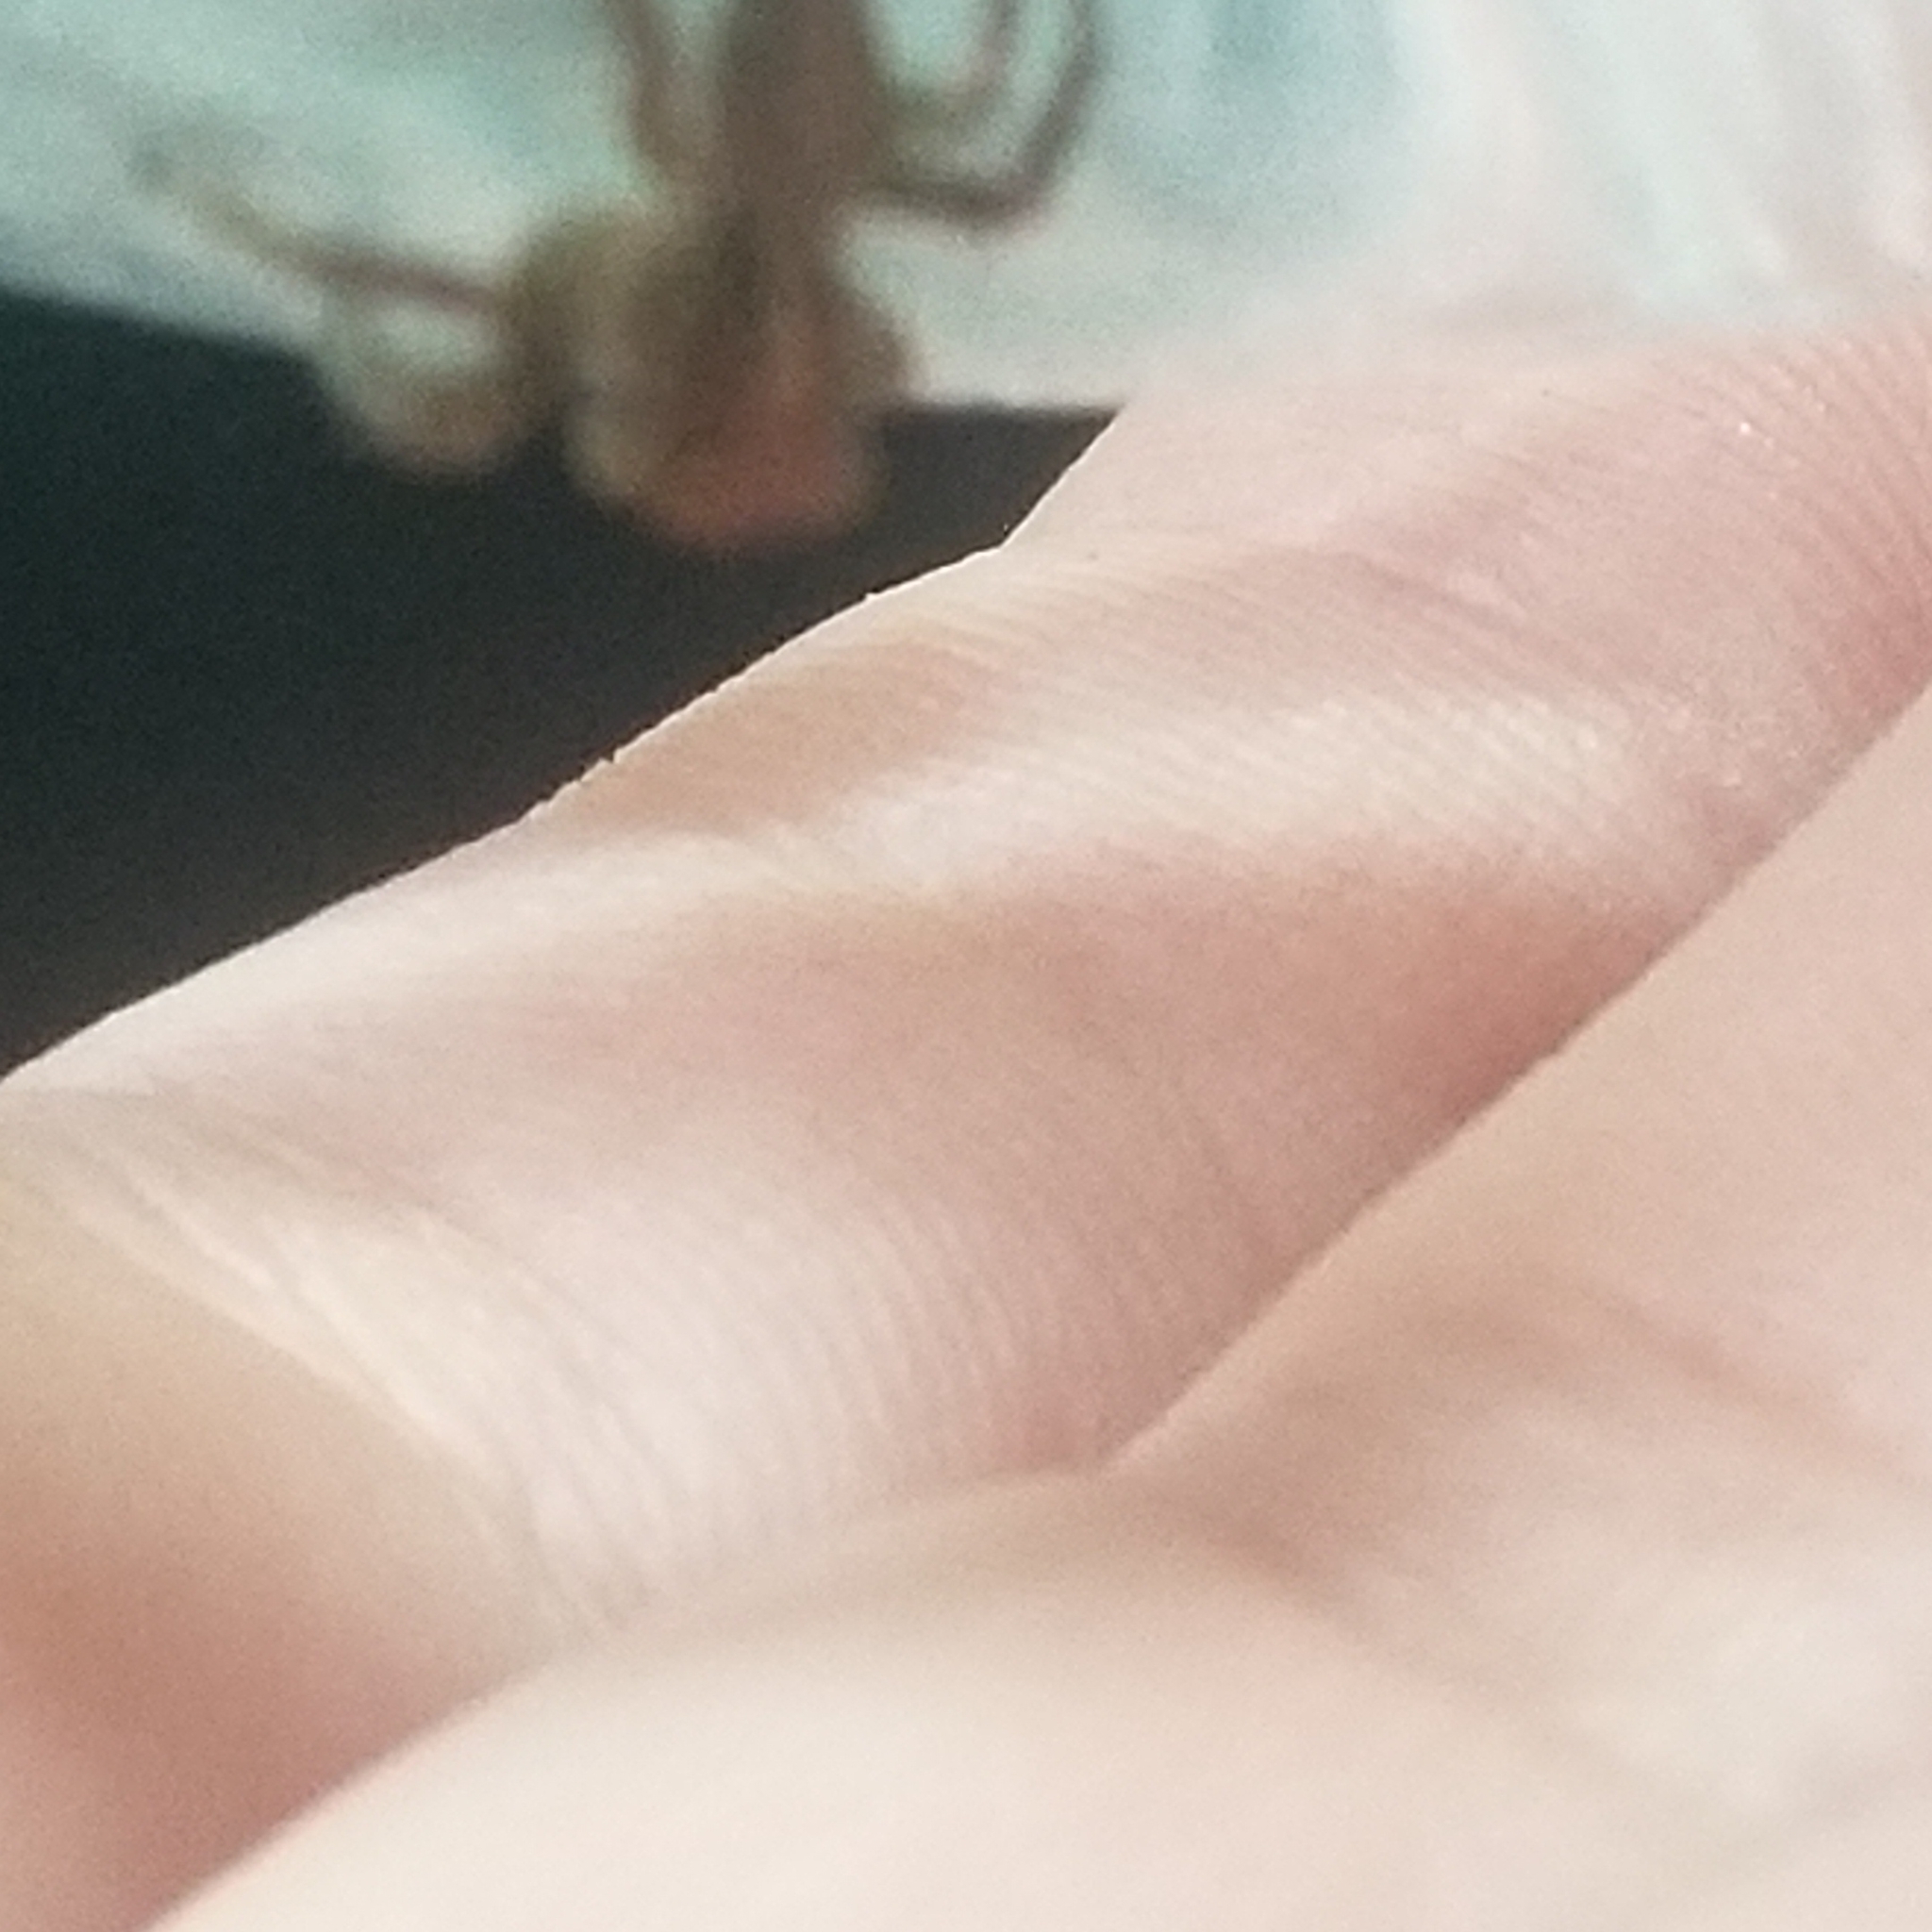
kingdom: Animalia
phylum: Arthropoda
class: Arachnida
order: Araneae
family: Salticidae
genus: Plexippus
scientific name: Plexippus paykulli
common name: Pantropical jumper
